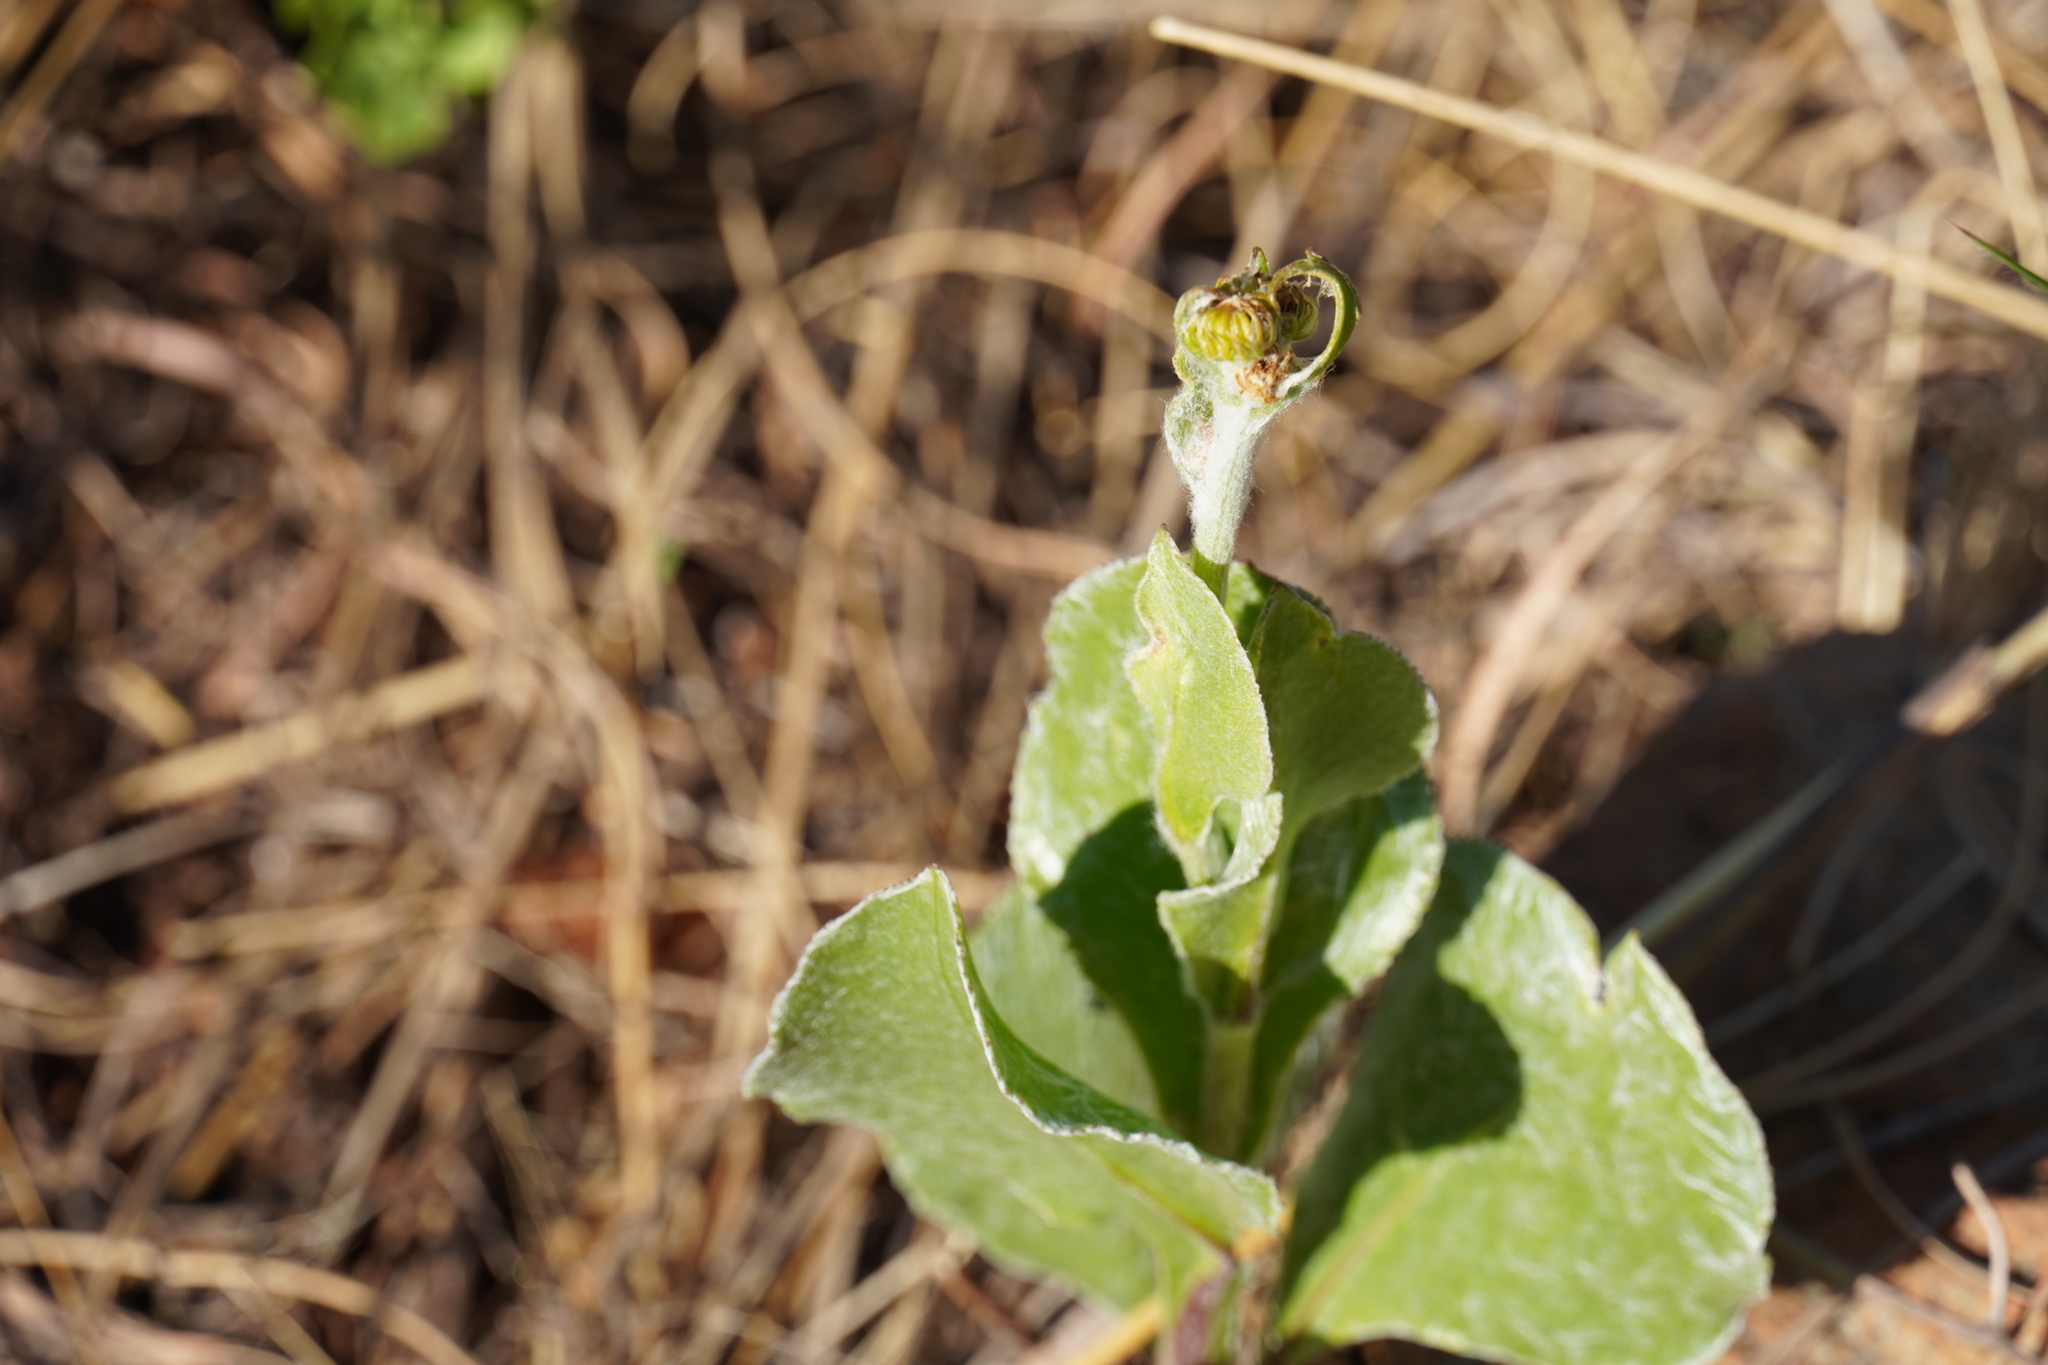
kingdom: Plantae
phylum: Tracheophyta
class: Magnoliopsida
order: Asterales
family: Asteraceae
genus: Osteospermum
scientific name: Osteospermum moniliferum
